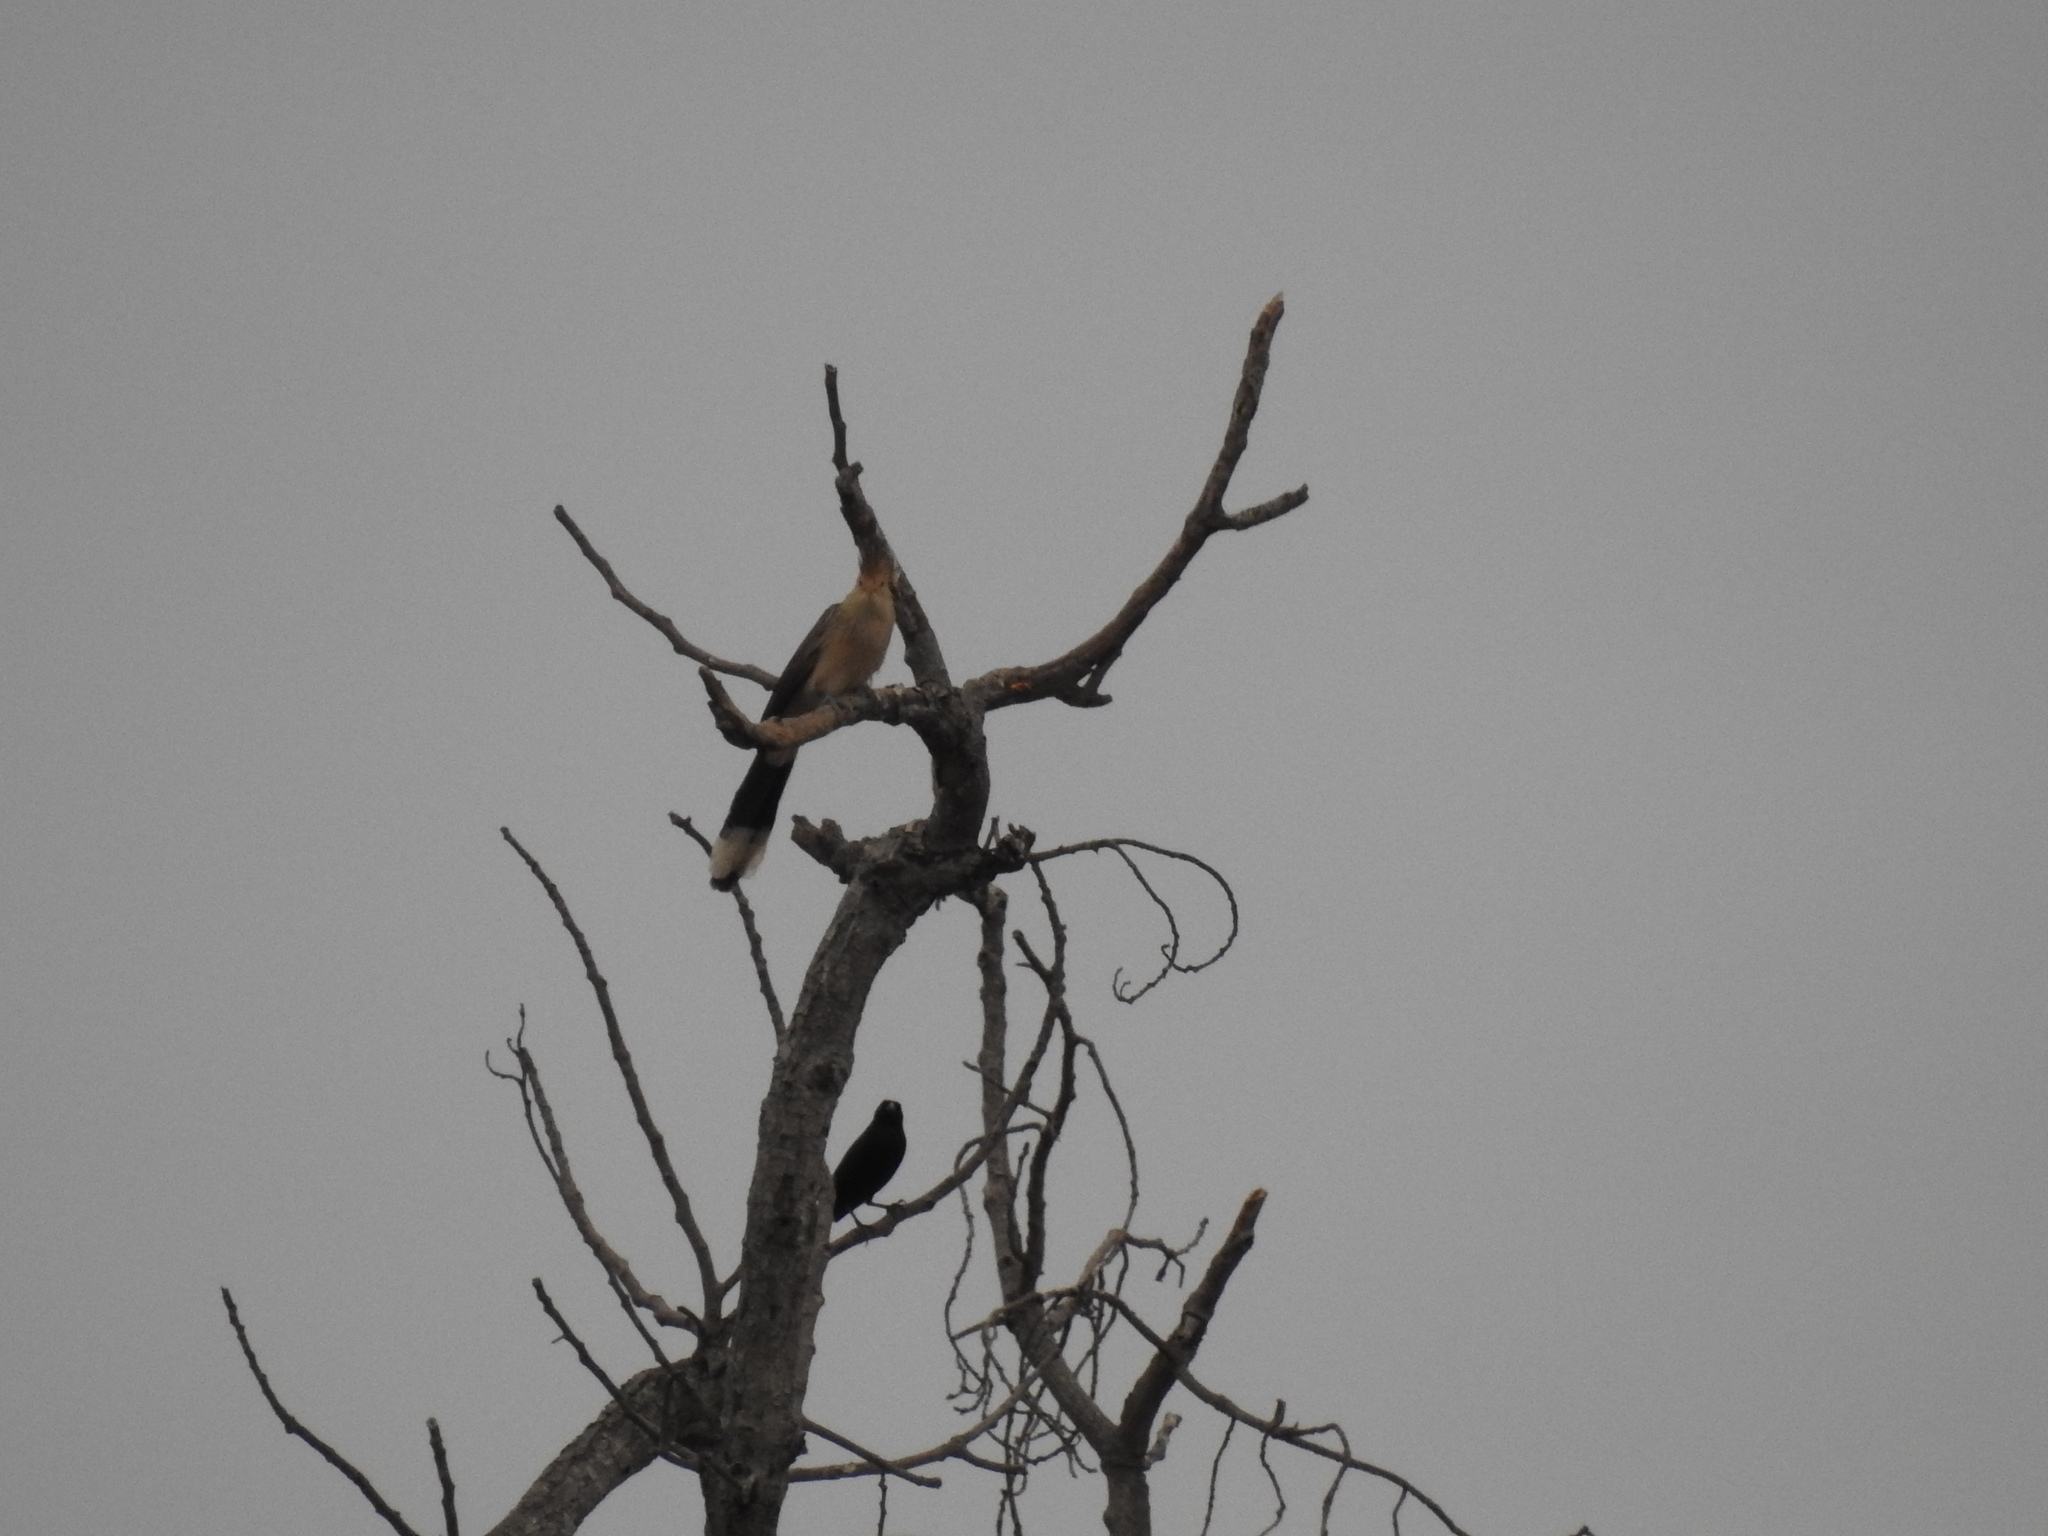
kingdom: Animalia
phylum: Chordata
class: Aves
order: Cuculiformes
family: Cuculidae
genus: Guira
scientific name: Guira guira
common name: Guira cuckoo
